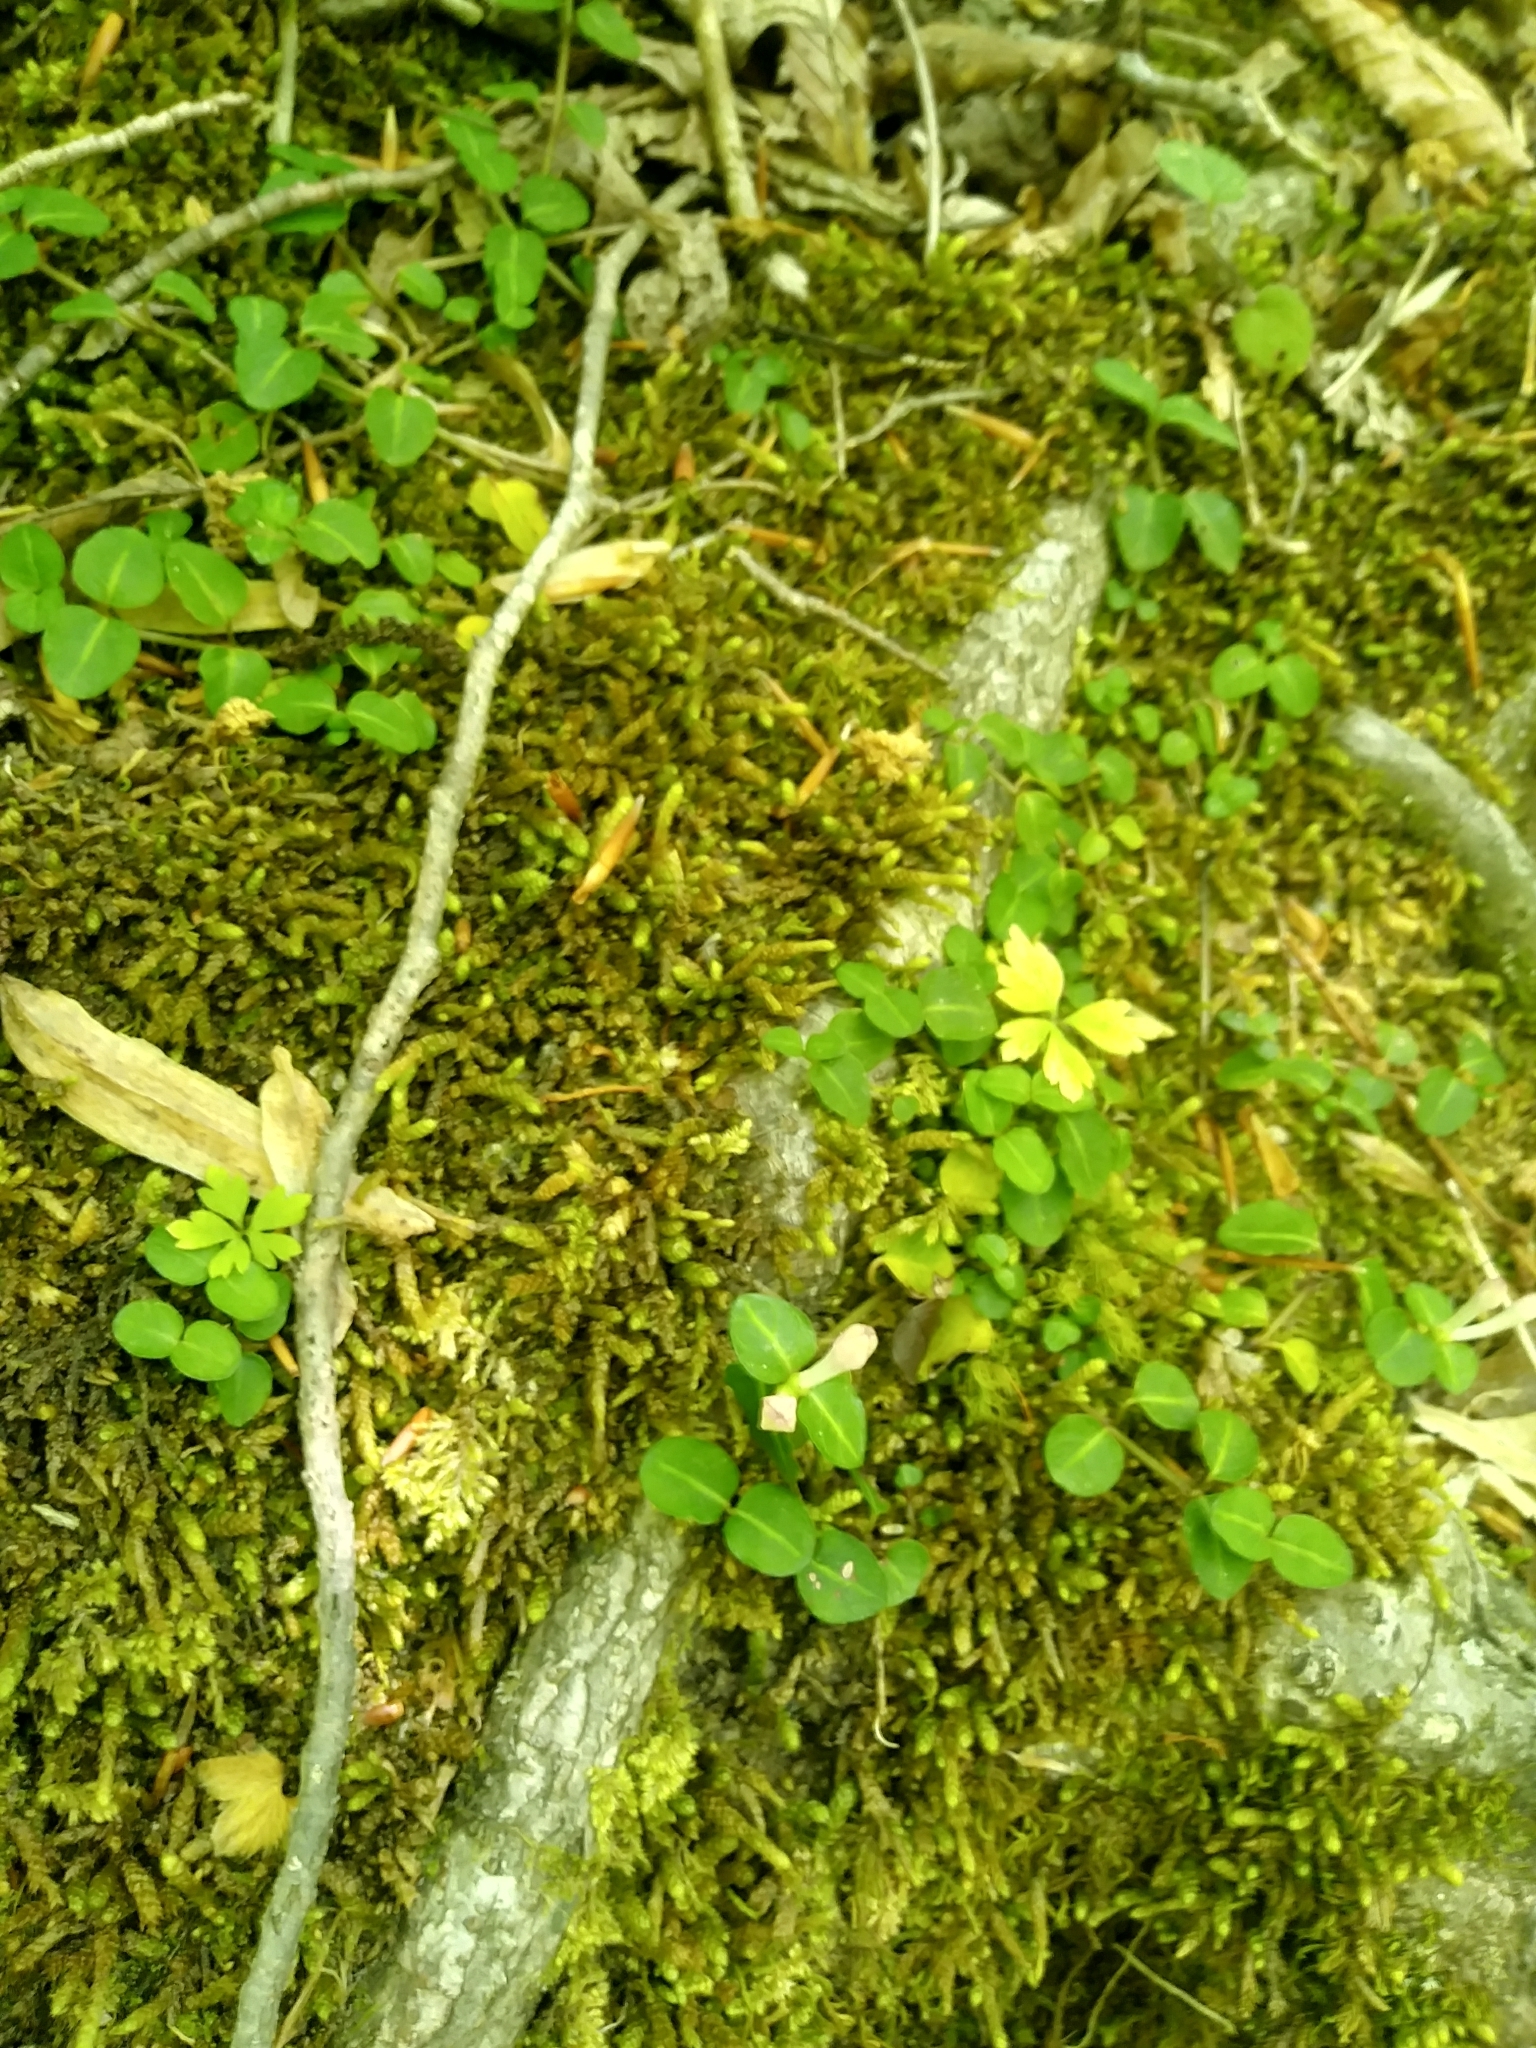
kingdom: Plantae
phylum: Tracheophyta
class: Magnoliopsida
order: Gentianales
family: Rubiaceae
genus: Mitchella
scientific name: Mitchella repens
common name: Partridge-berry
